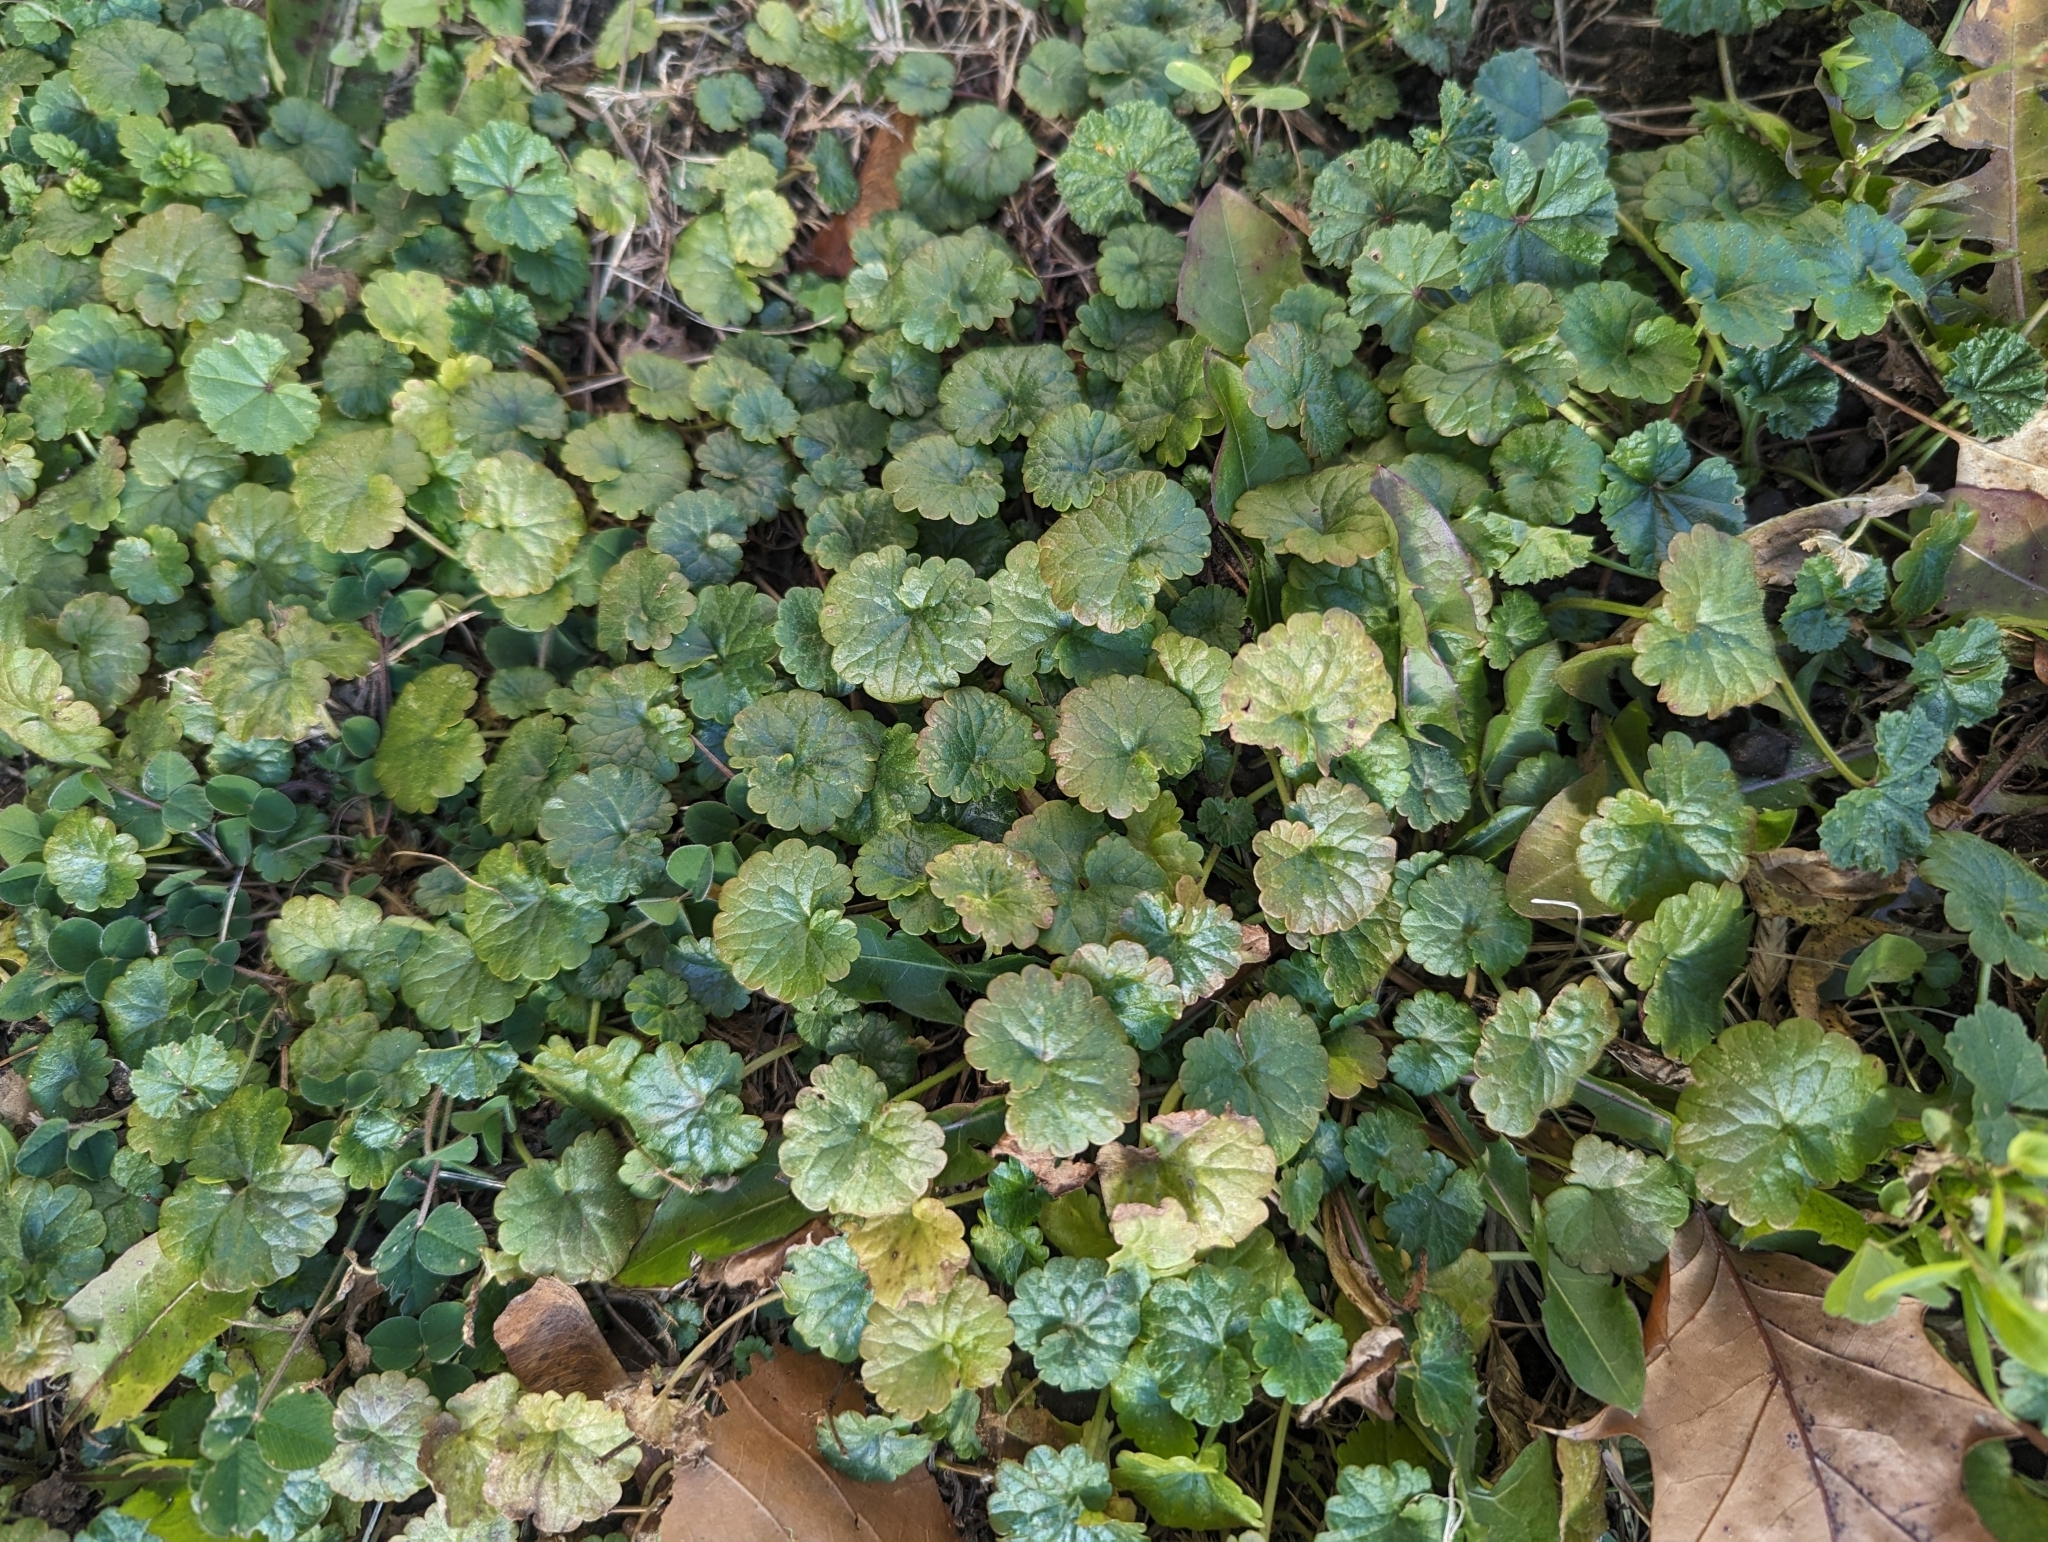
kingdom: Plantae
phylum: Tracheophyta
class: Magnoliopsida
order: Lamiales
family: Lamiaceae
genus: Glechoma
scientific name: Glechoma hederacea
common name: Ground ivy
